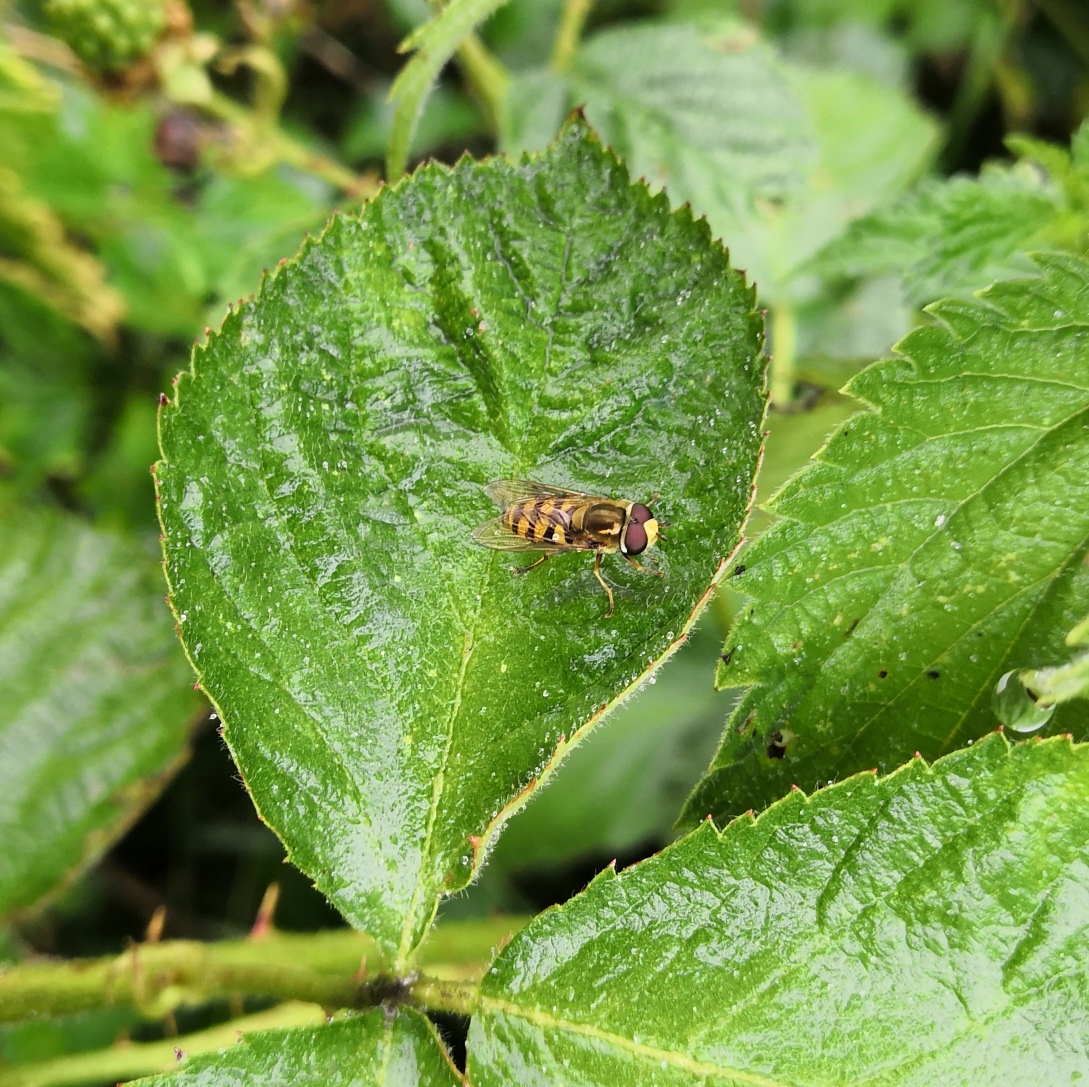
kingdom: Animalia
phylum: Arthropoda
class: Insecta
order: Diptera
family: Syrphidae
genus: Eupeodes
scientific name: Eupeodes corollae
